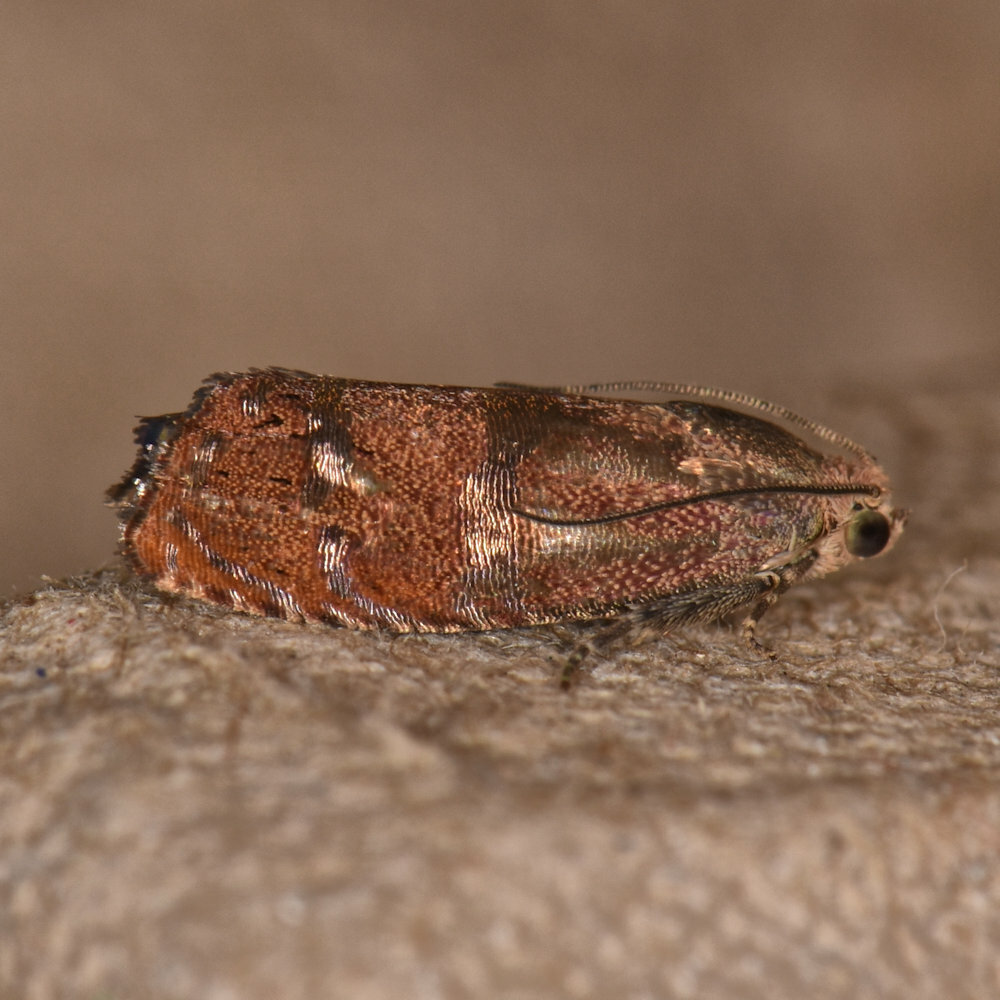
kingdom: Animalia
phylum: Arthropoda
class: Insecta
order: Lepidoptera
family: Tortricidae
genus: Cydia
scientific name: Cydia latiferreana
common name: Filbertworm moth
